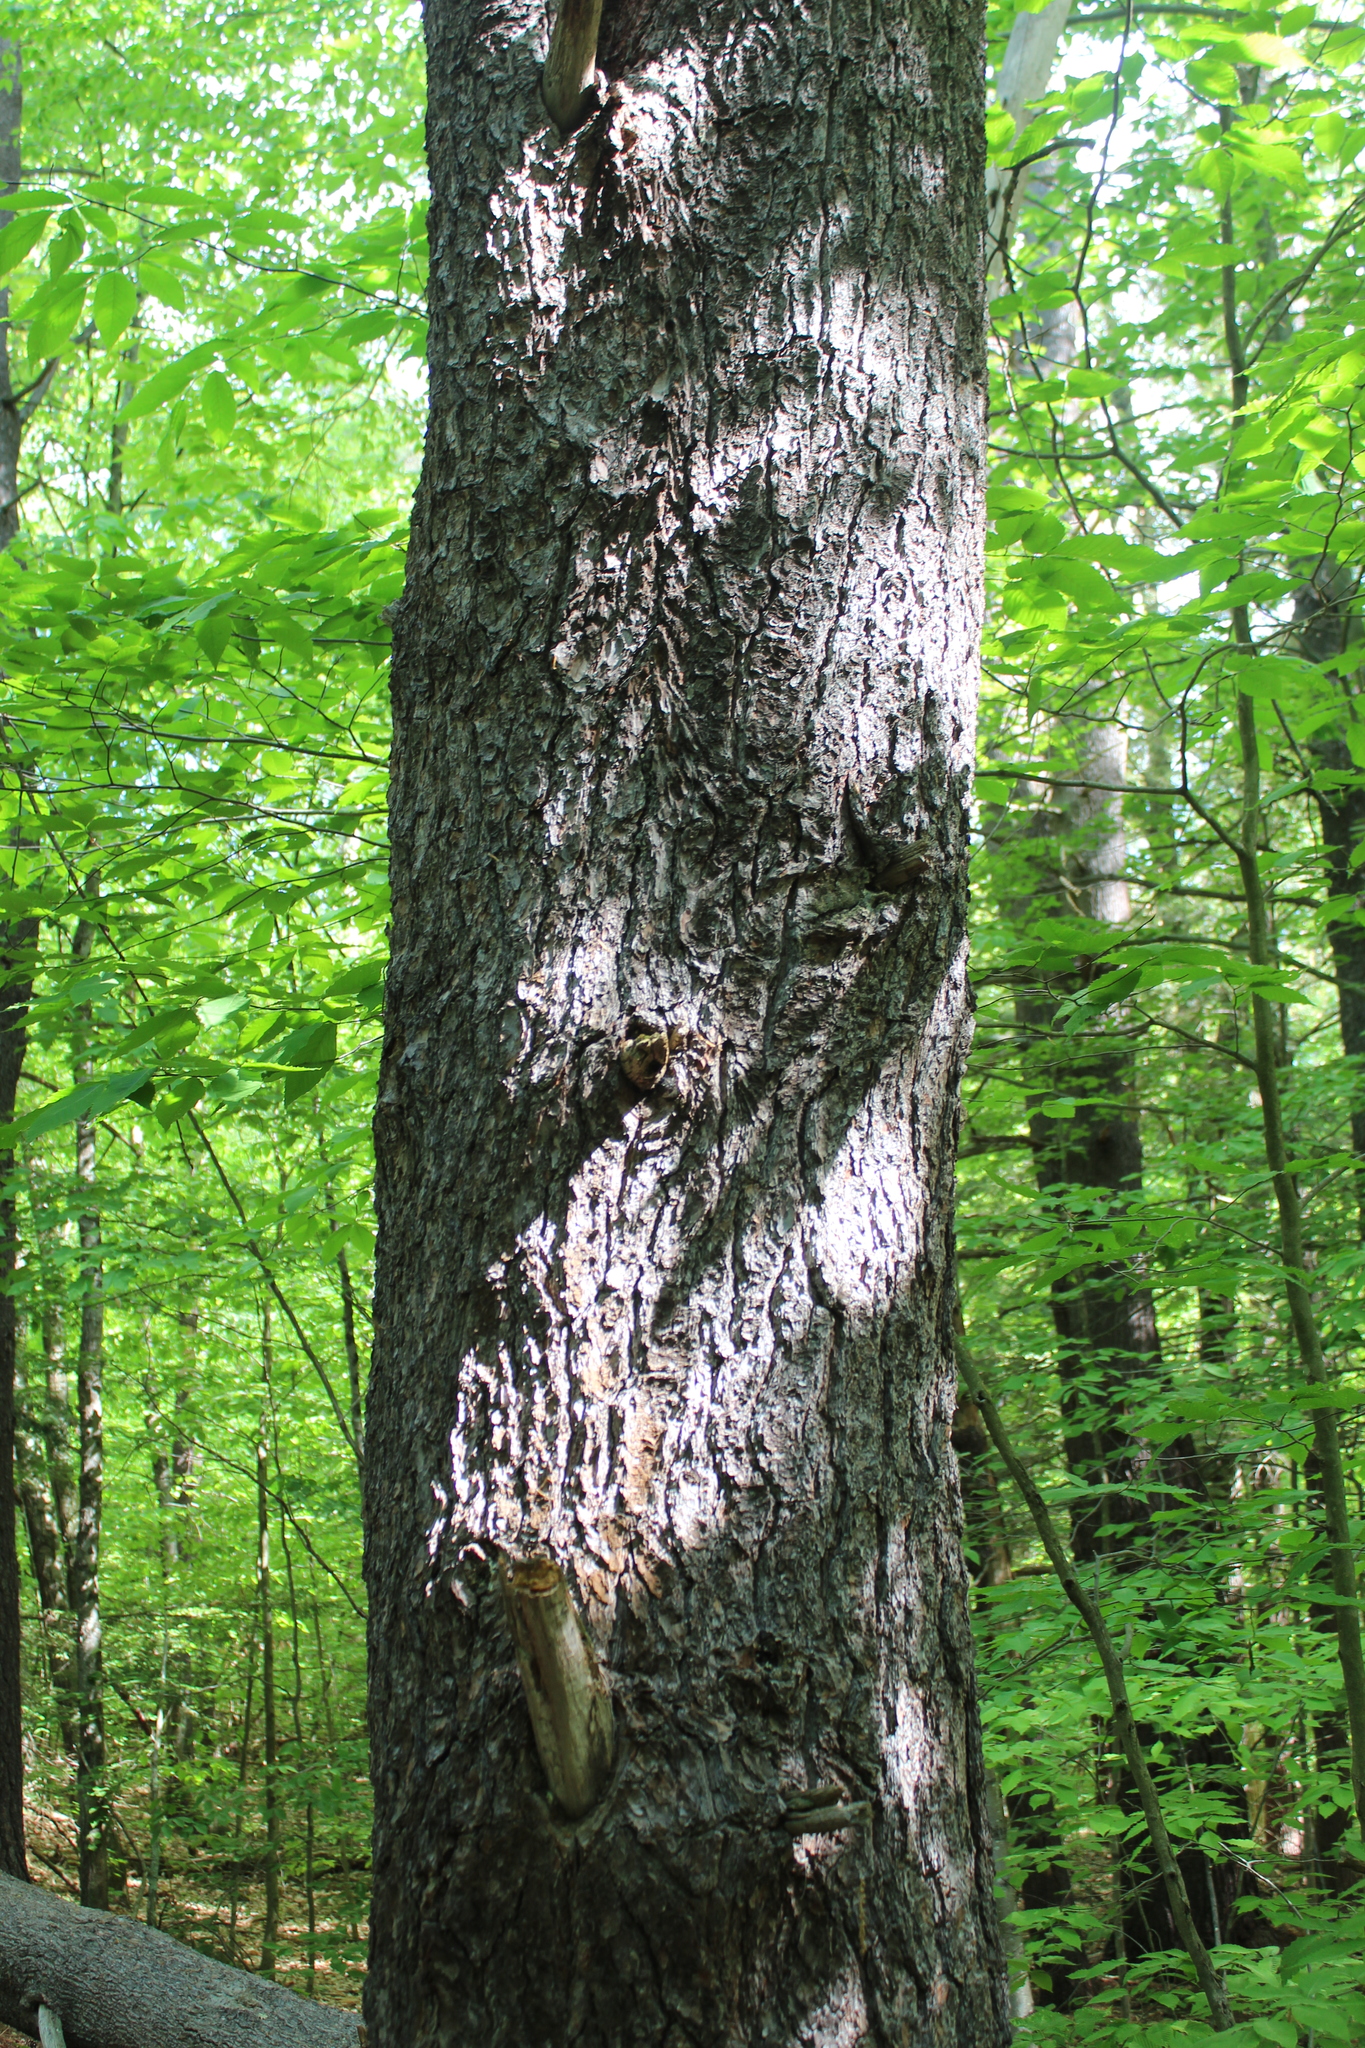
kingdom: Plantae
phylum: Tracheophyta
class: Pinopsida
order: Pinales
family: Pinaceae
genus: Pinus
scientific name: Pinus strobus
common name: Weymouth pine
